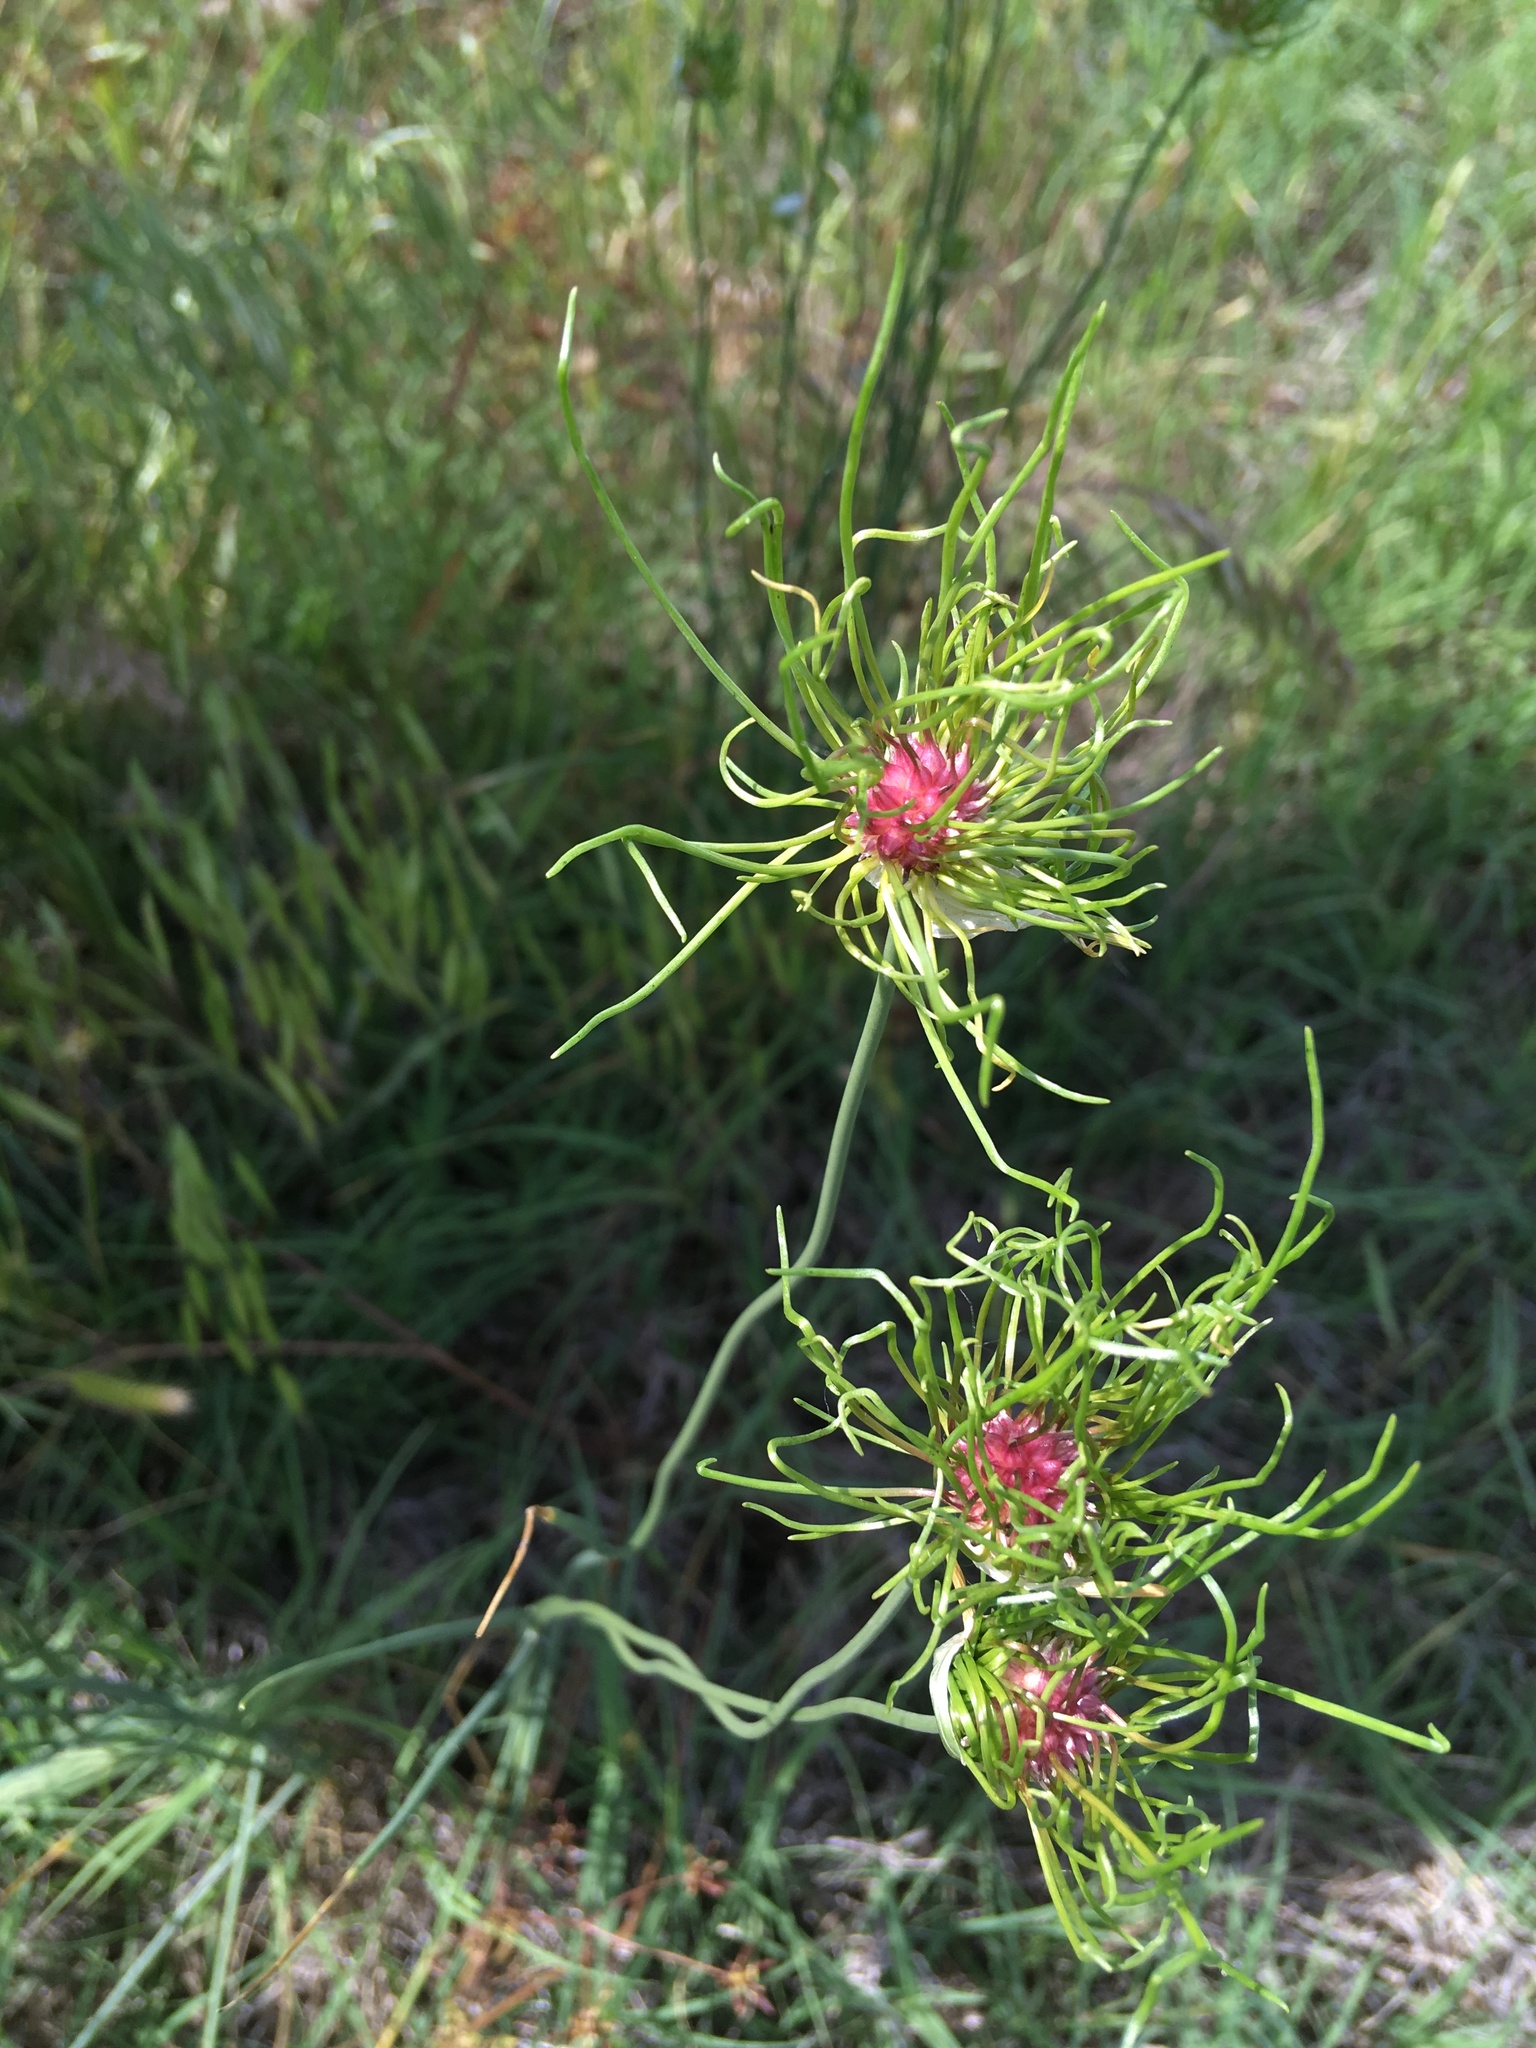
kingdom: Plantae
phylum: Tracheophyta
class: Liliopsida
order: Asparagales
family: Amaryllidaceae
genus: Allium
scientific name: Allium canadense
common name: Meadow garlic
